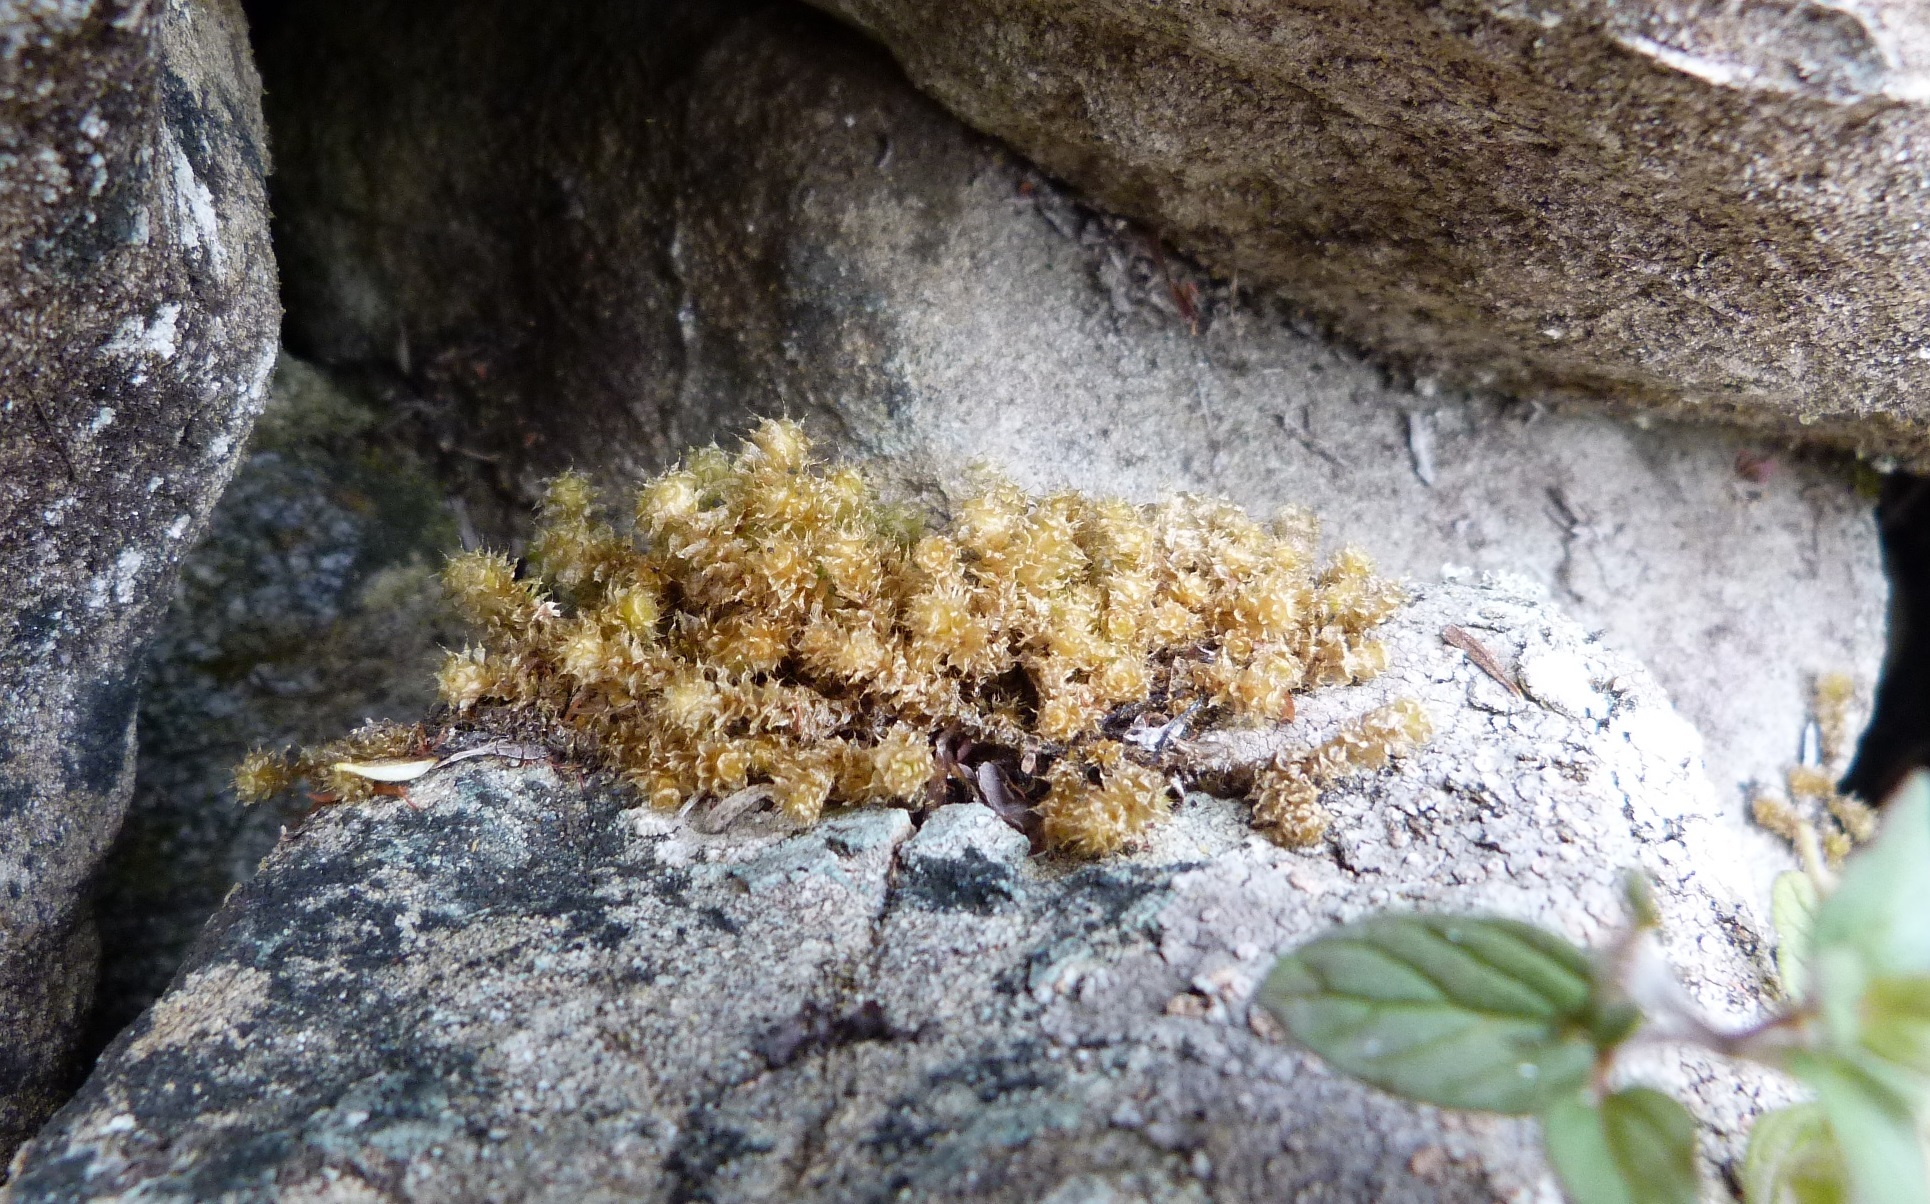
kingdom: Plantae
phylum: Bryophyta
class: Bryopsida
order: Ptychomniales
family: Ptychomniaceae
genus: Ptychomnion
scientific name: Ptychomnion aciculare
